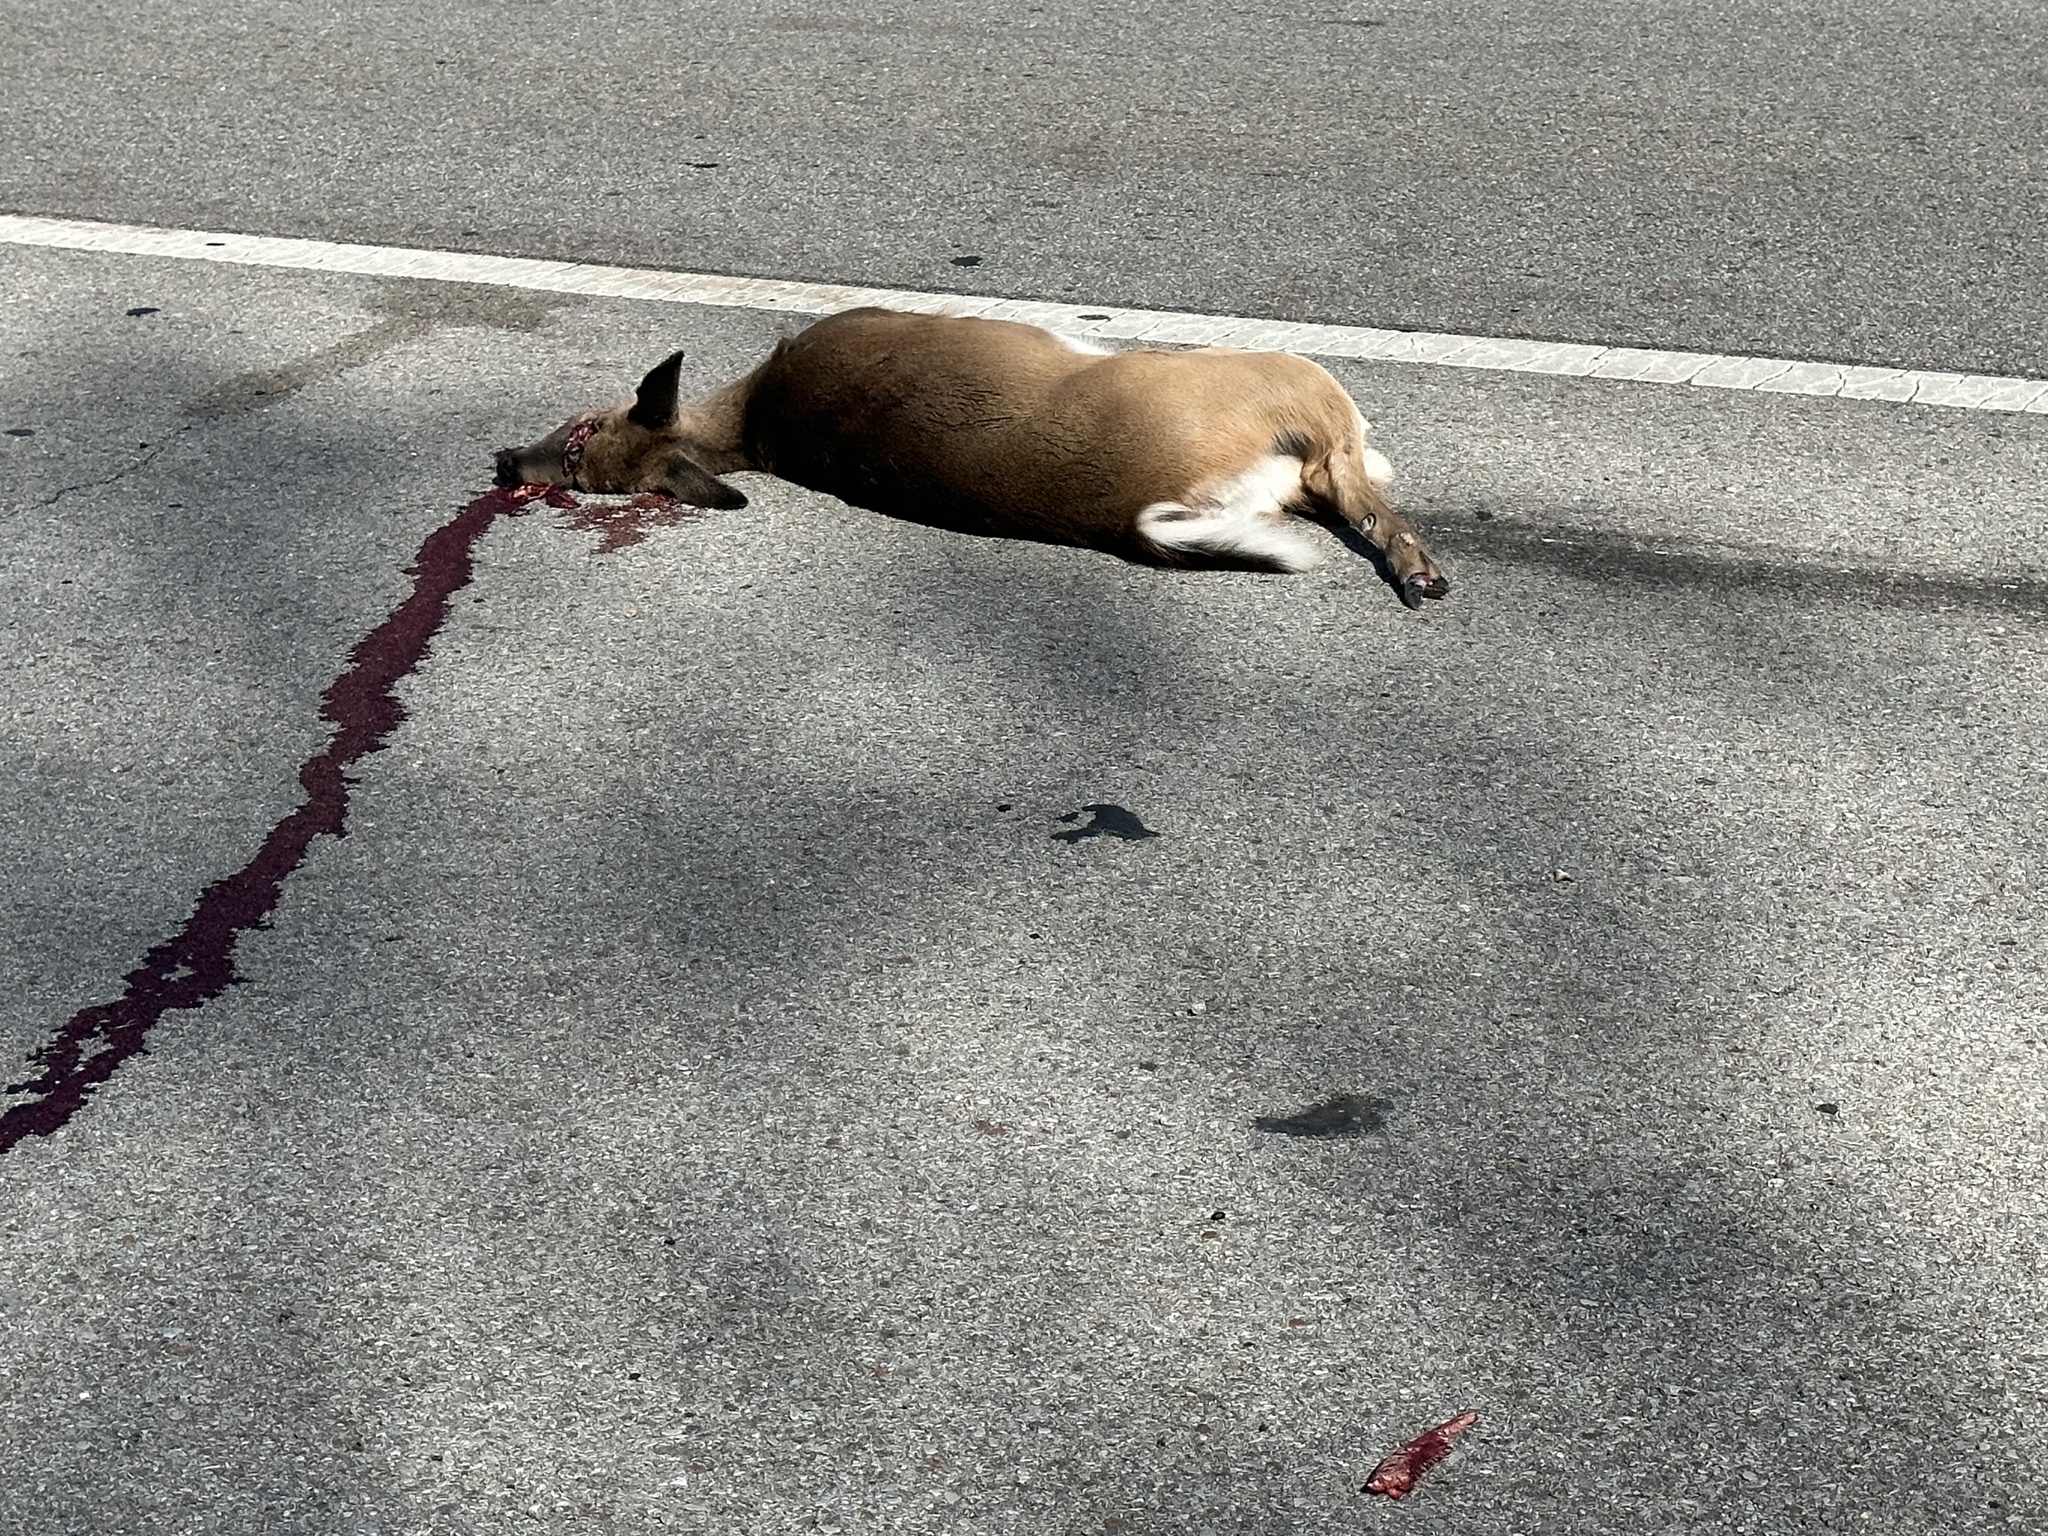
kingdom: Animalia
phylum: Chordata
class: Mammalia
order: Artiodactyla
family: Cervidae
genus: Odocoileus
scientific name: Odocoileus virginianus
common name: White-tailed deer
